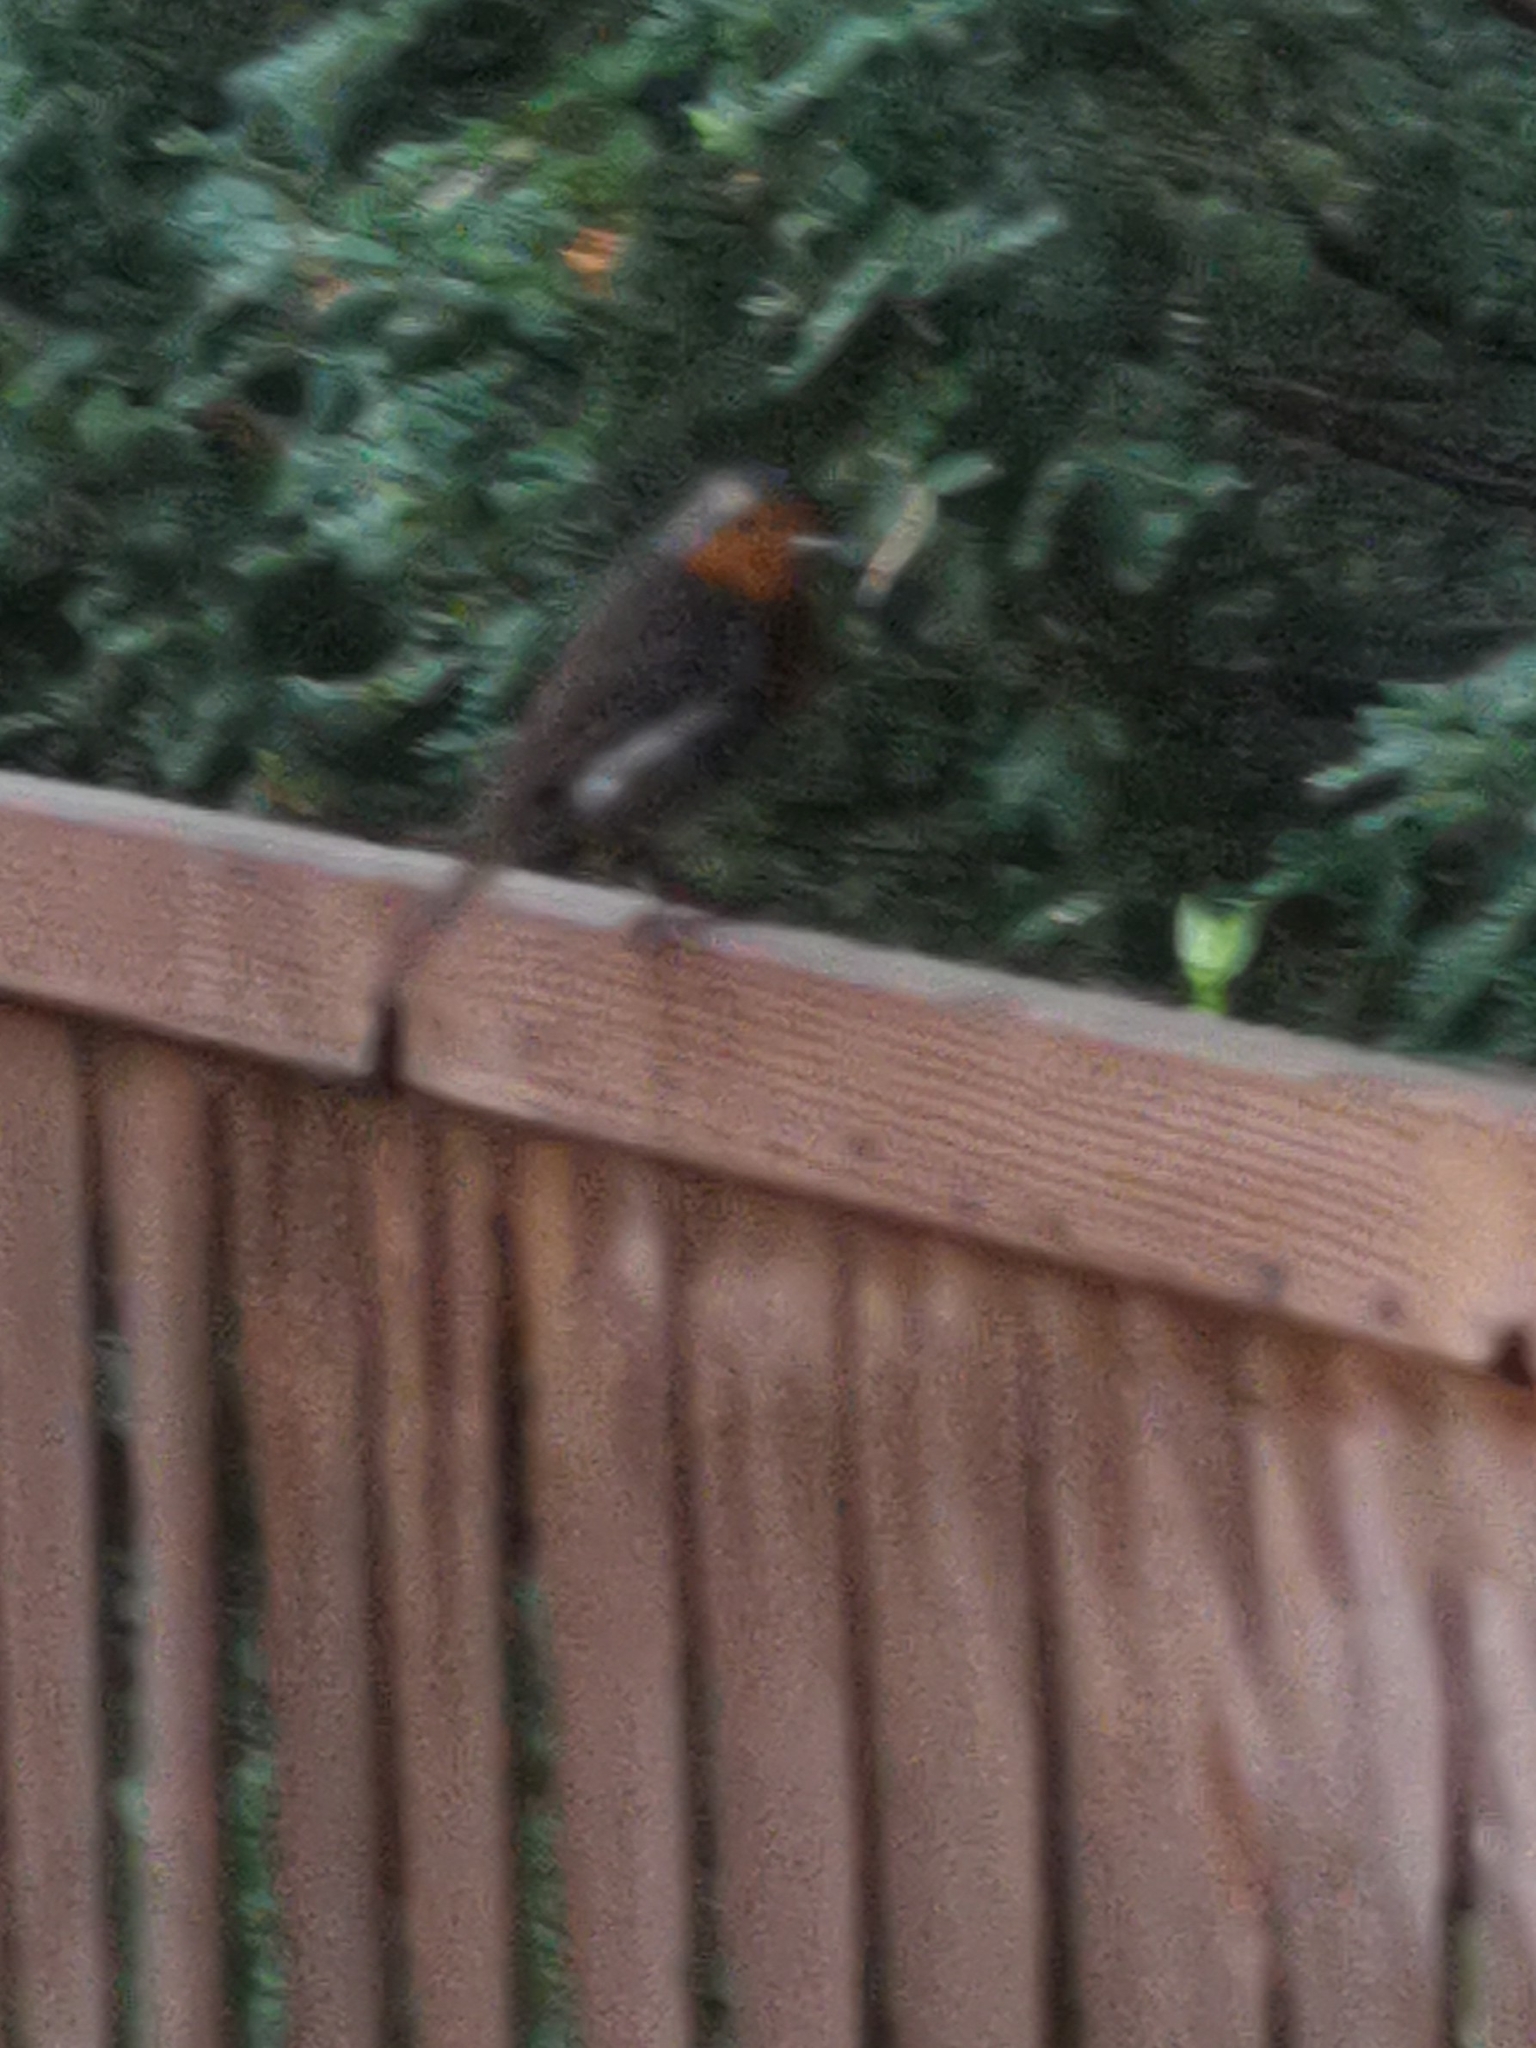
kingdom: Animalia
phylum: Chordata
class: Aves
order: Passeriformes
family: Muscicapidae
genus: Erithacus
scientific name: Erithacus rubecula
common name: European robin
